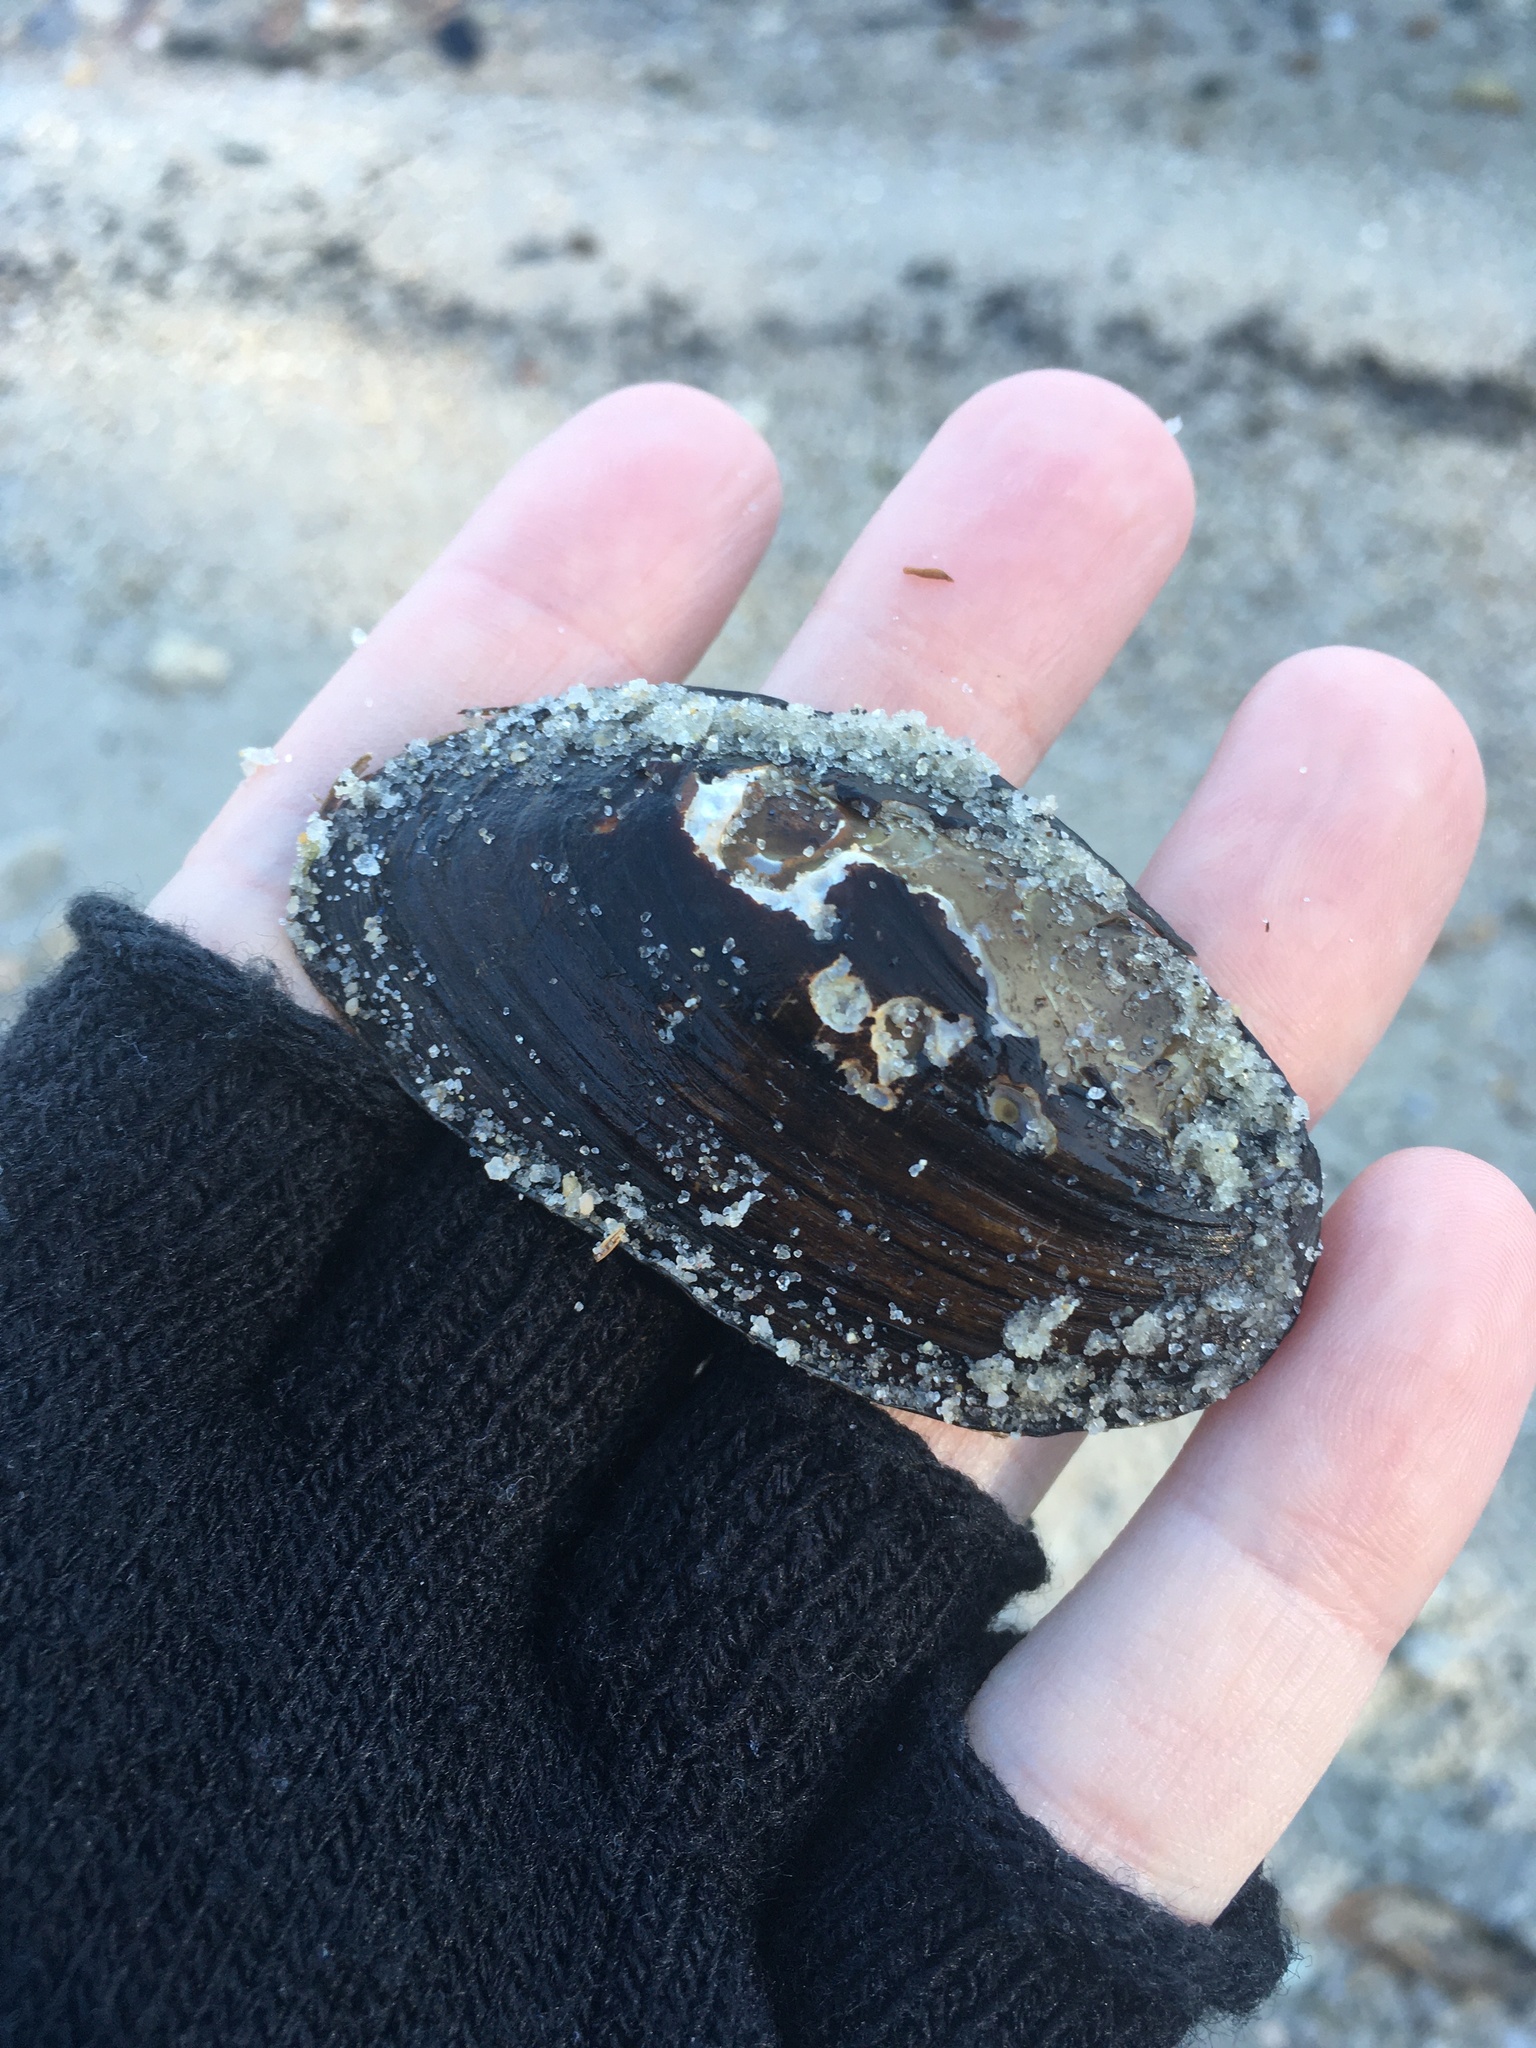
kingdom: Animalia
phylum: Mollusca
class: Bivalvia
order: Unionida
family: Unionidae
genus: Elliptio
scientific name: Elliptio complanata
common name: Eastern elliptio
